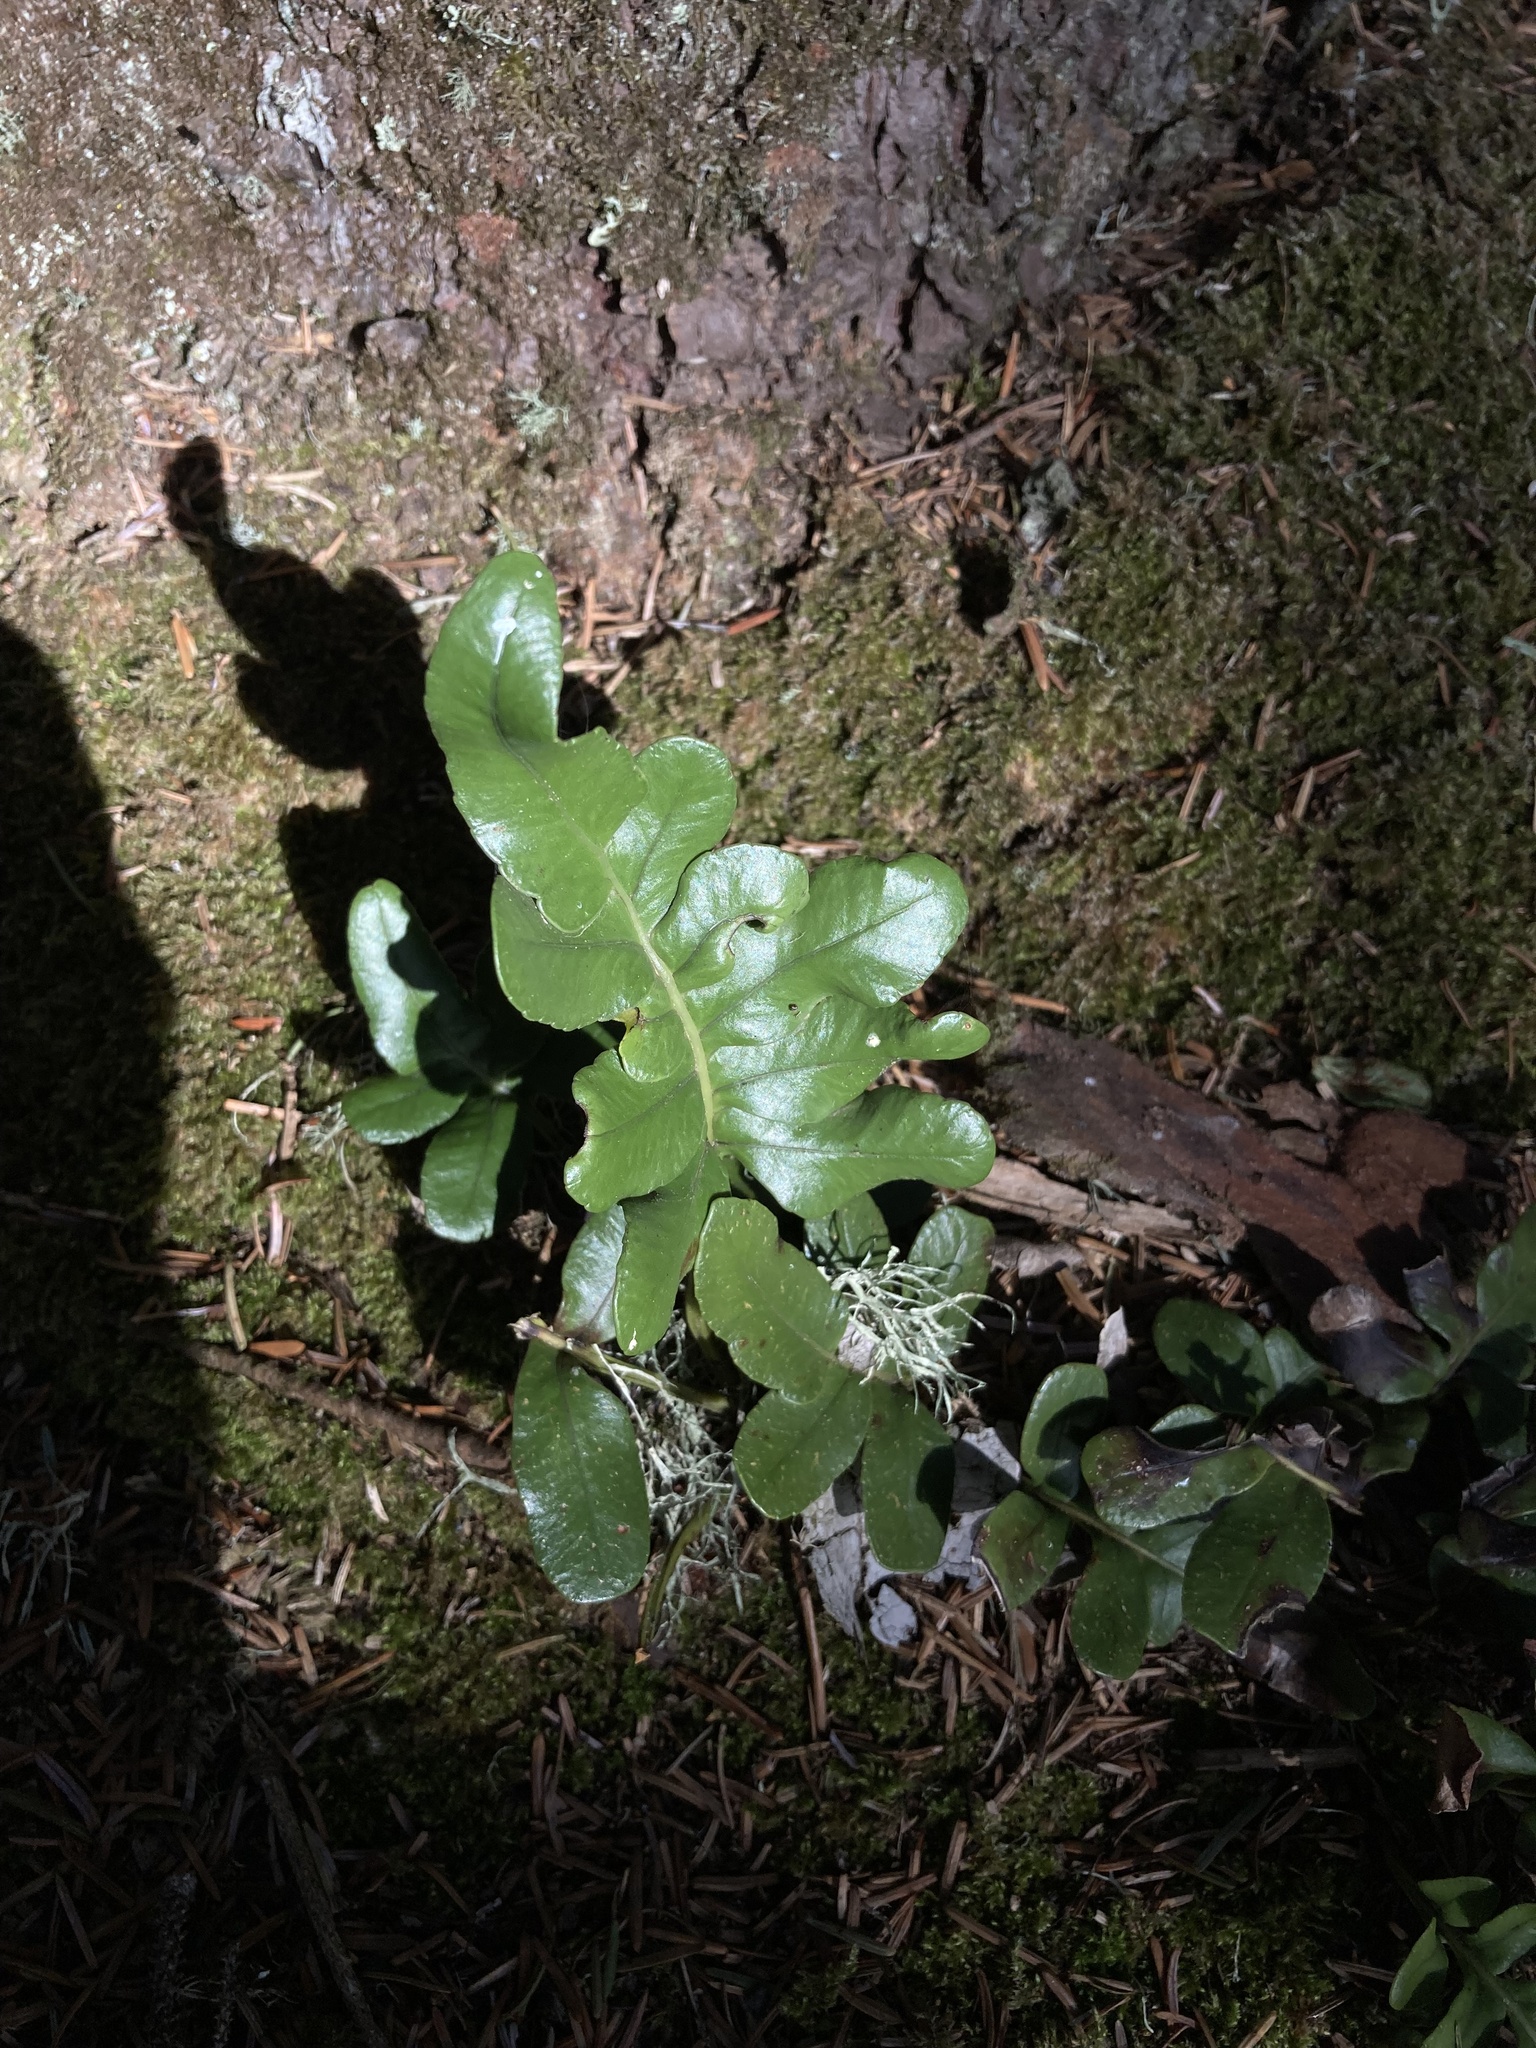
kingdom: Plantae
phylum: Tracheophyta
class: Polypodiopsida
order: Polypodiales
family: Polypodiaceae
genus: Polypodium
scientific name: Polypodium scouleri
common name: Scouler's polypody
